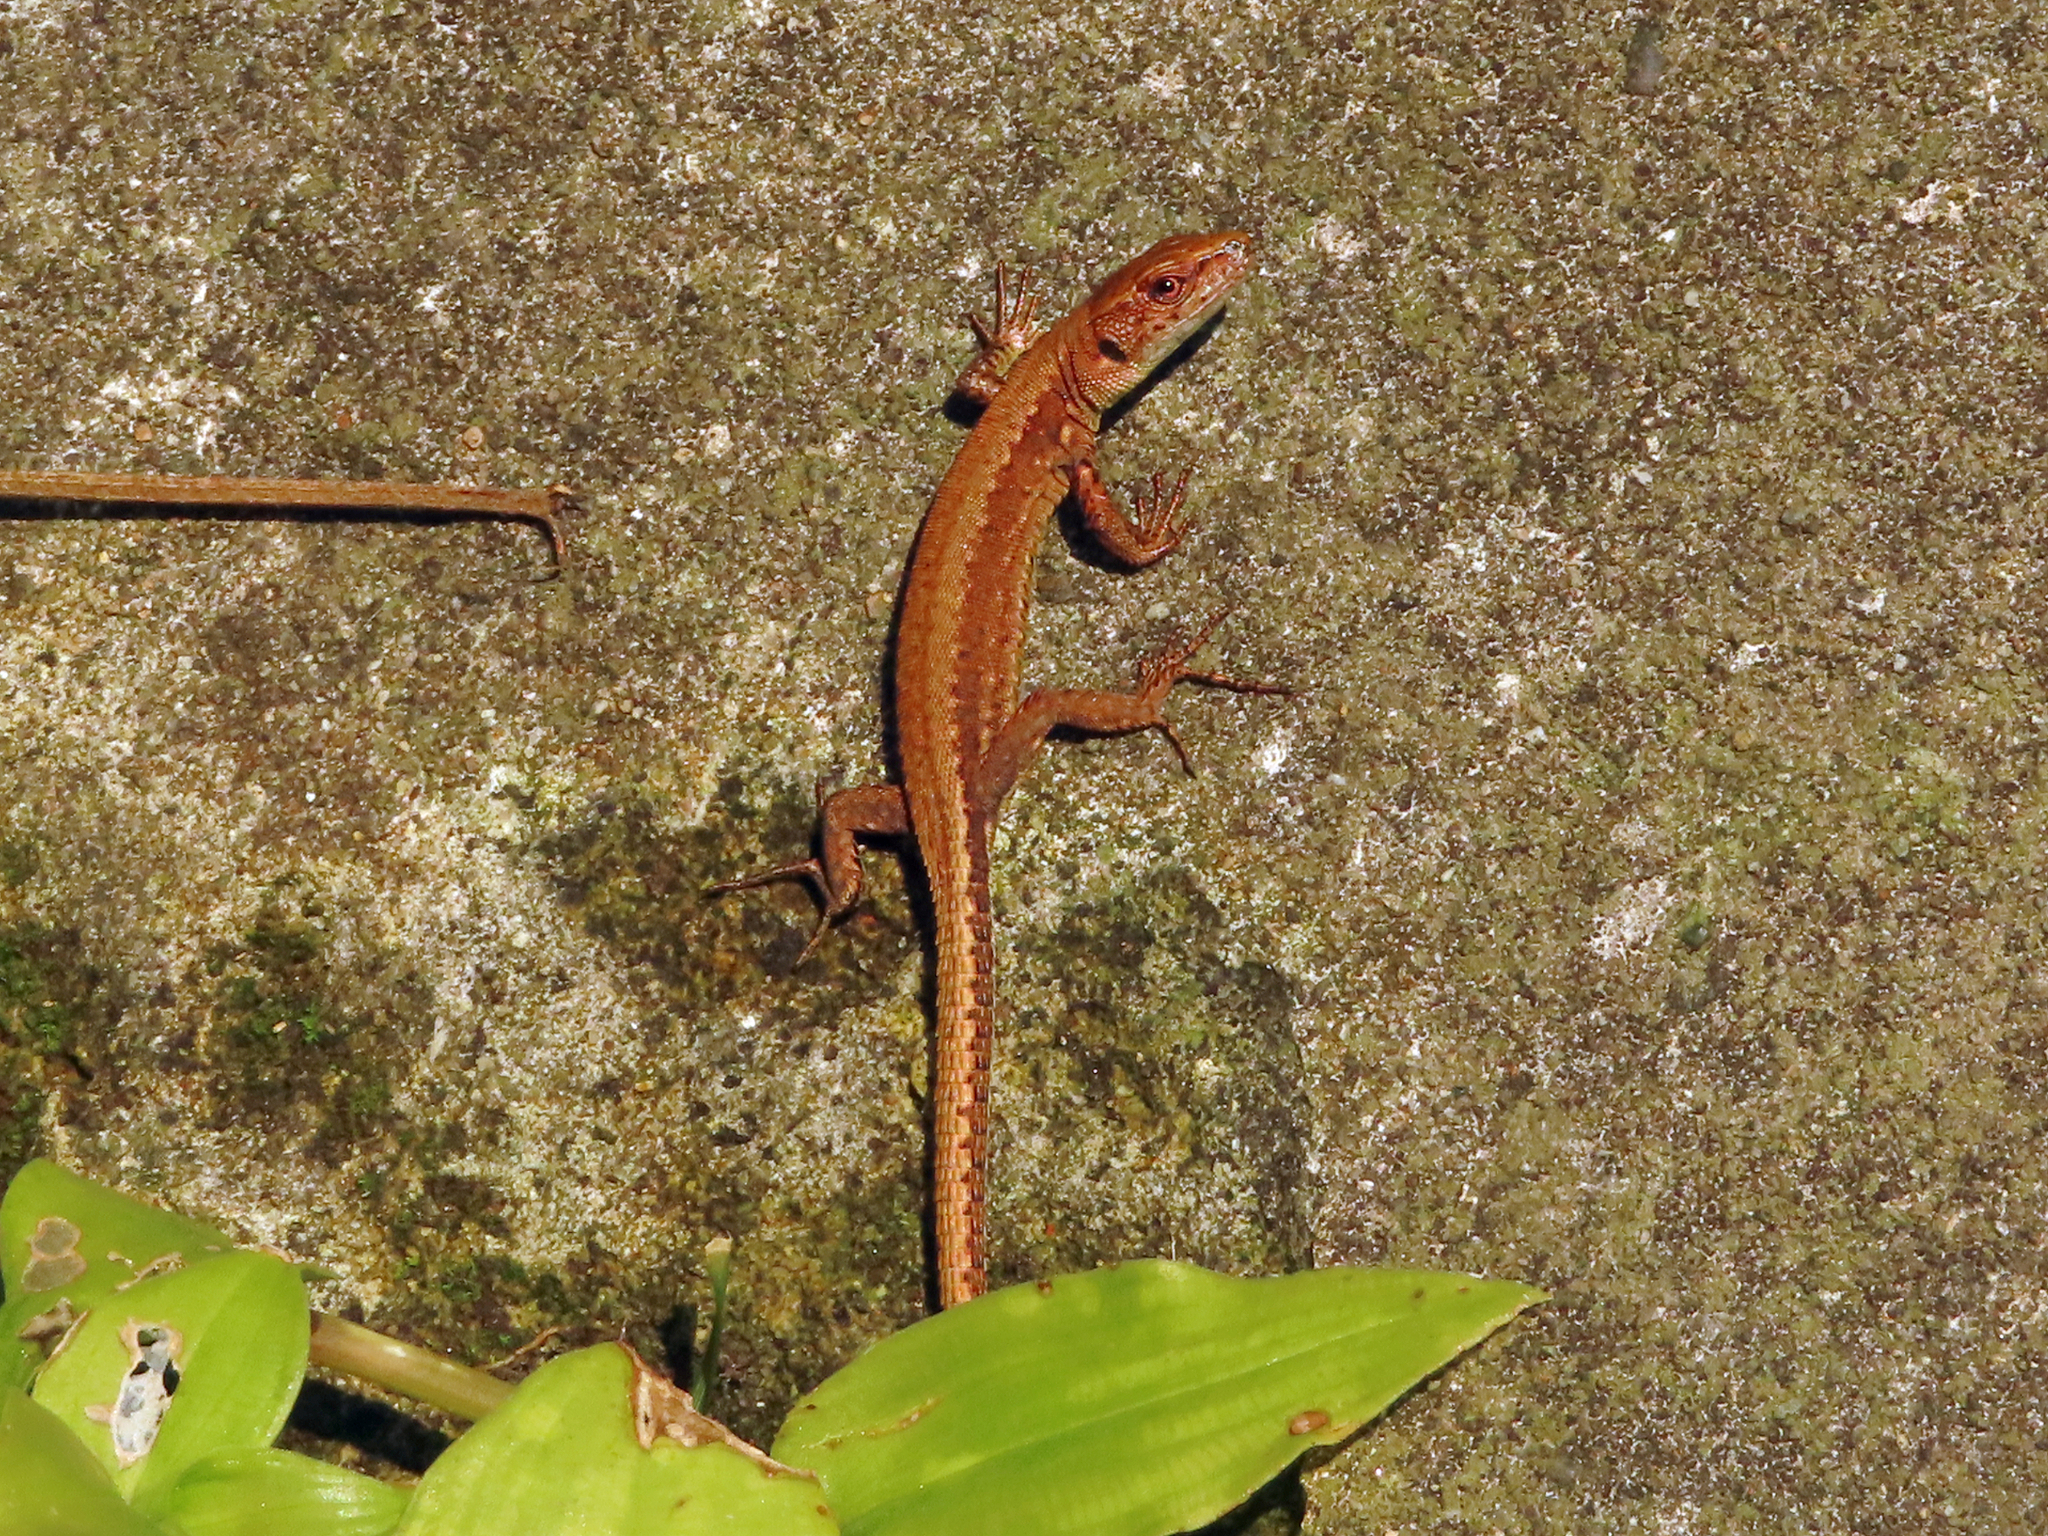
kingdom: Animalia
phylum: Chordata
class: Squamata
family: Lacertidae
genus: Darevskia
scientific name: Darevskia derjugini
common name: Derjugin's lizard
